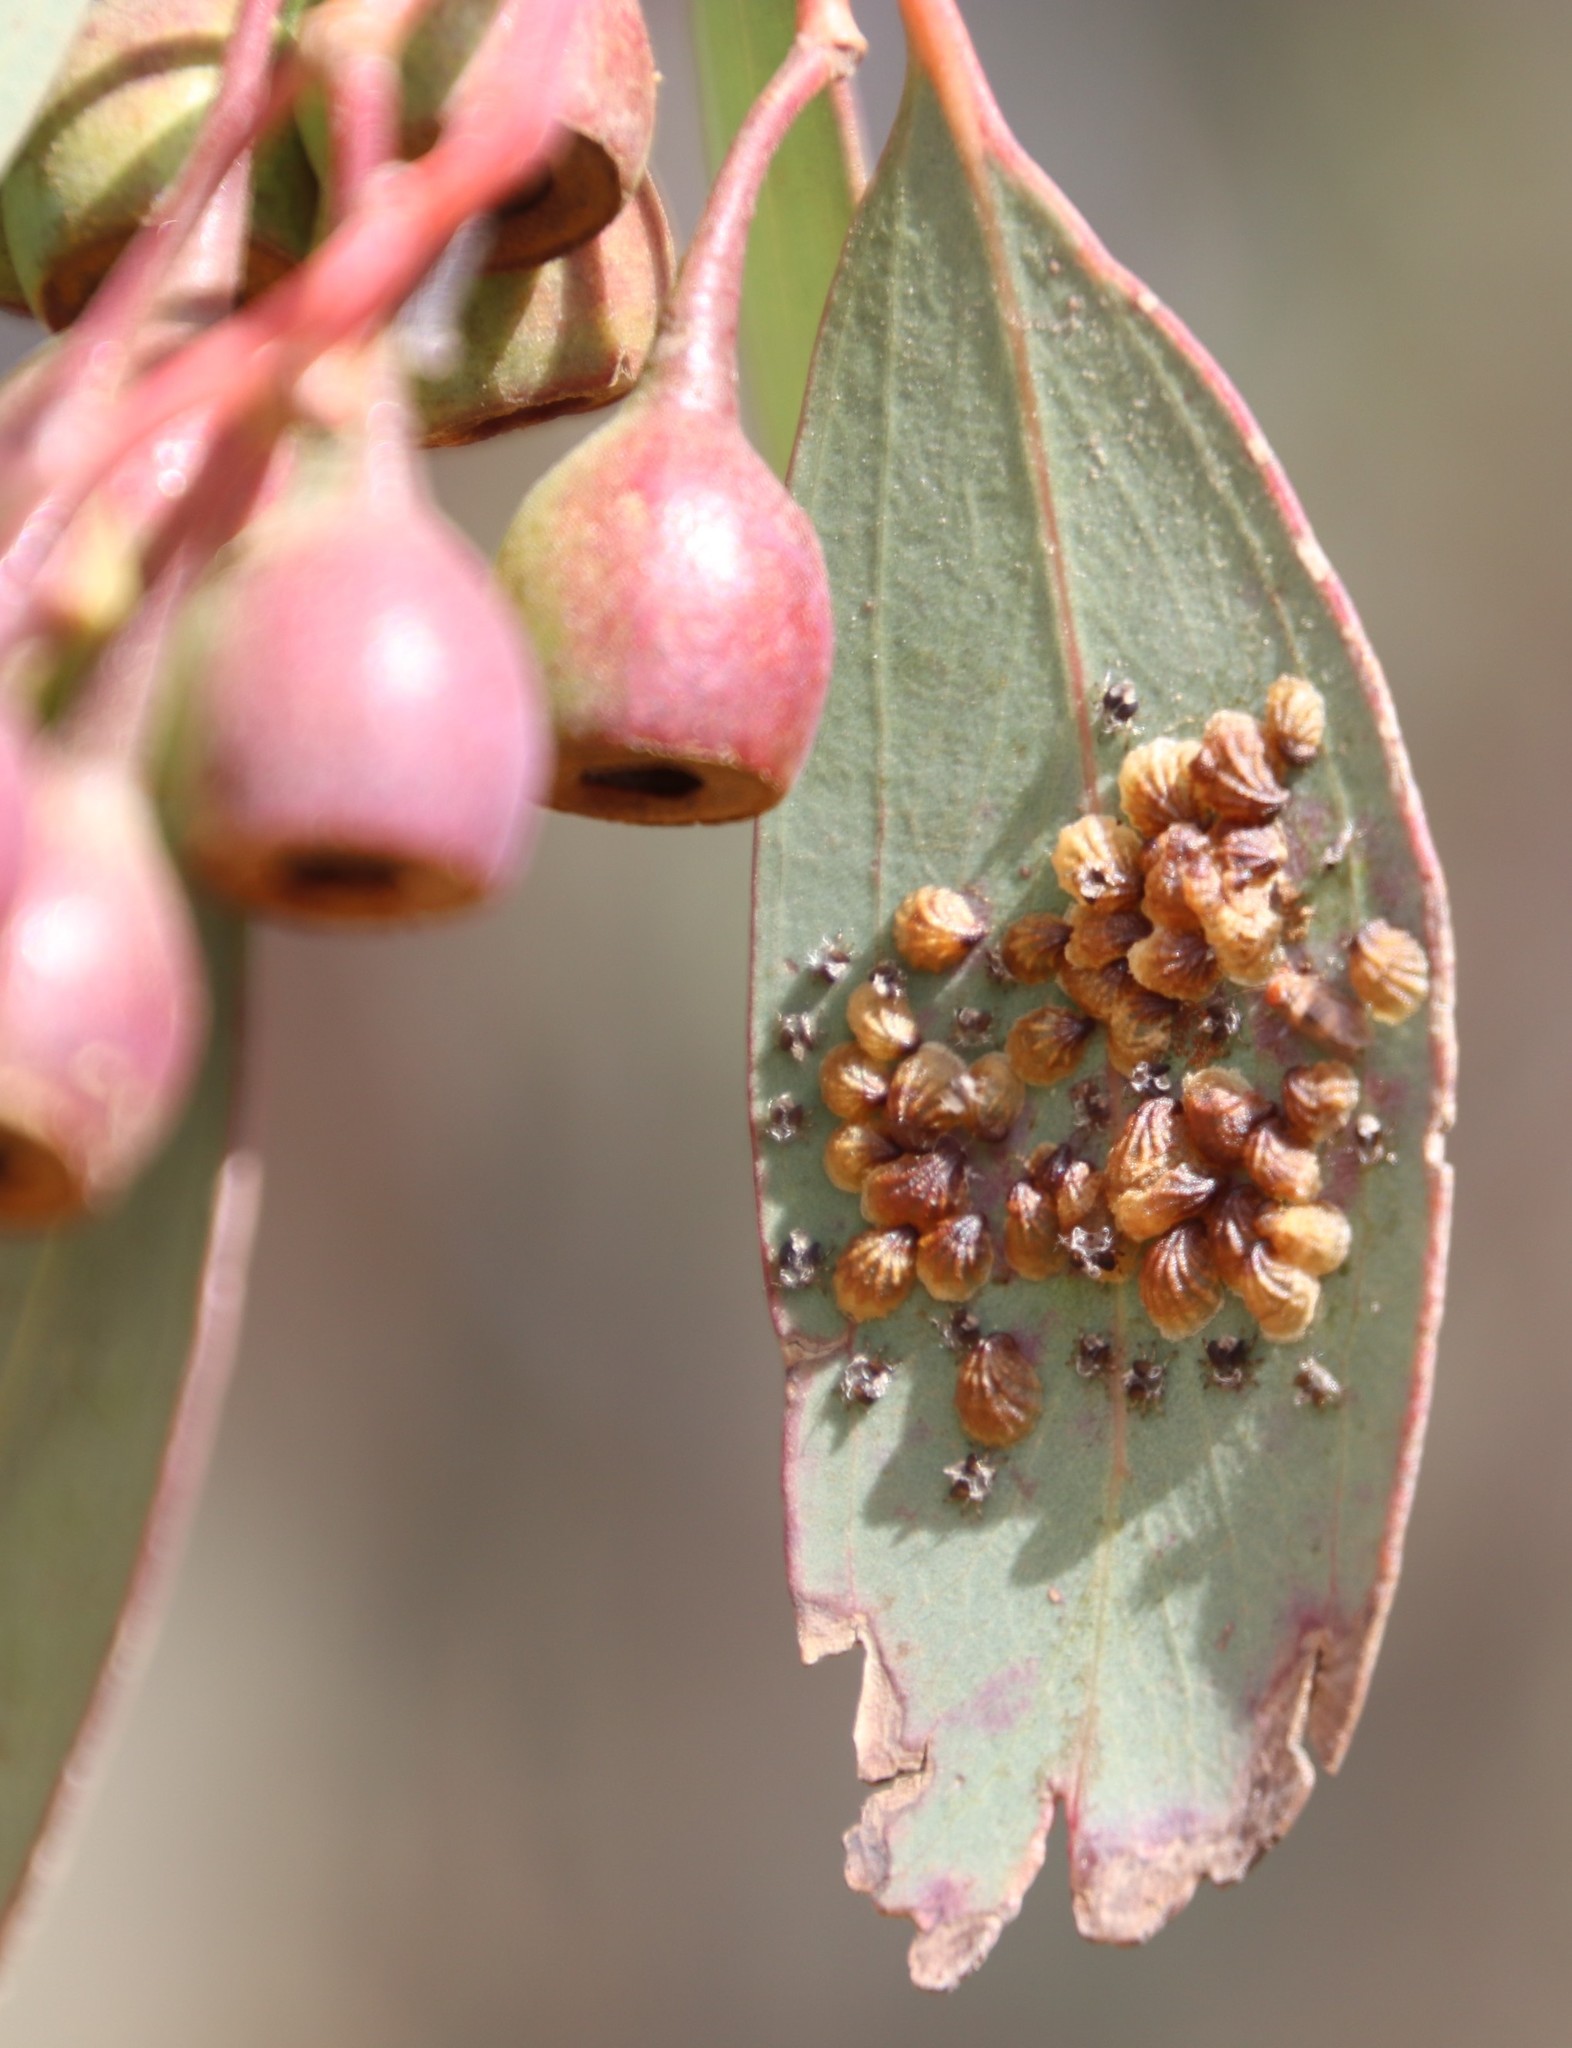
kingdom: Animalia
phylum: Arthropoda
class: Insecta
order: Hemiptera
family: Aphalaridae
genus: Spondyliaspis
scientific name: Spondyliaspis plicatuloides
